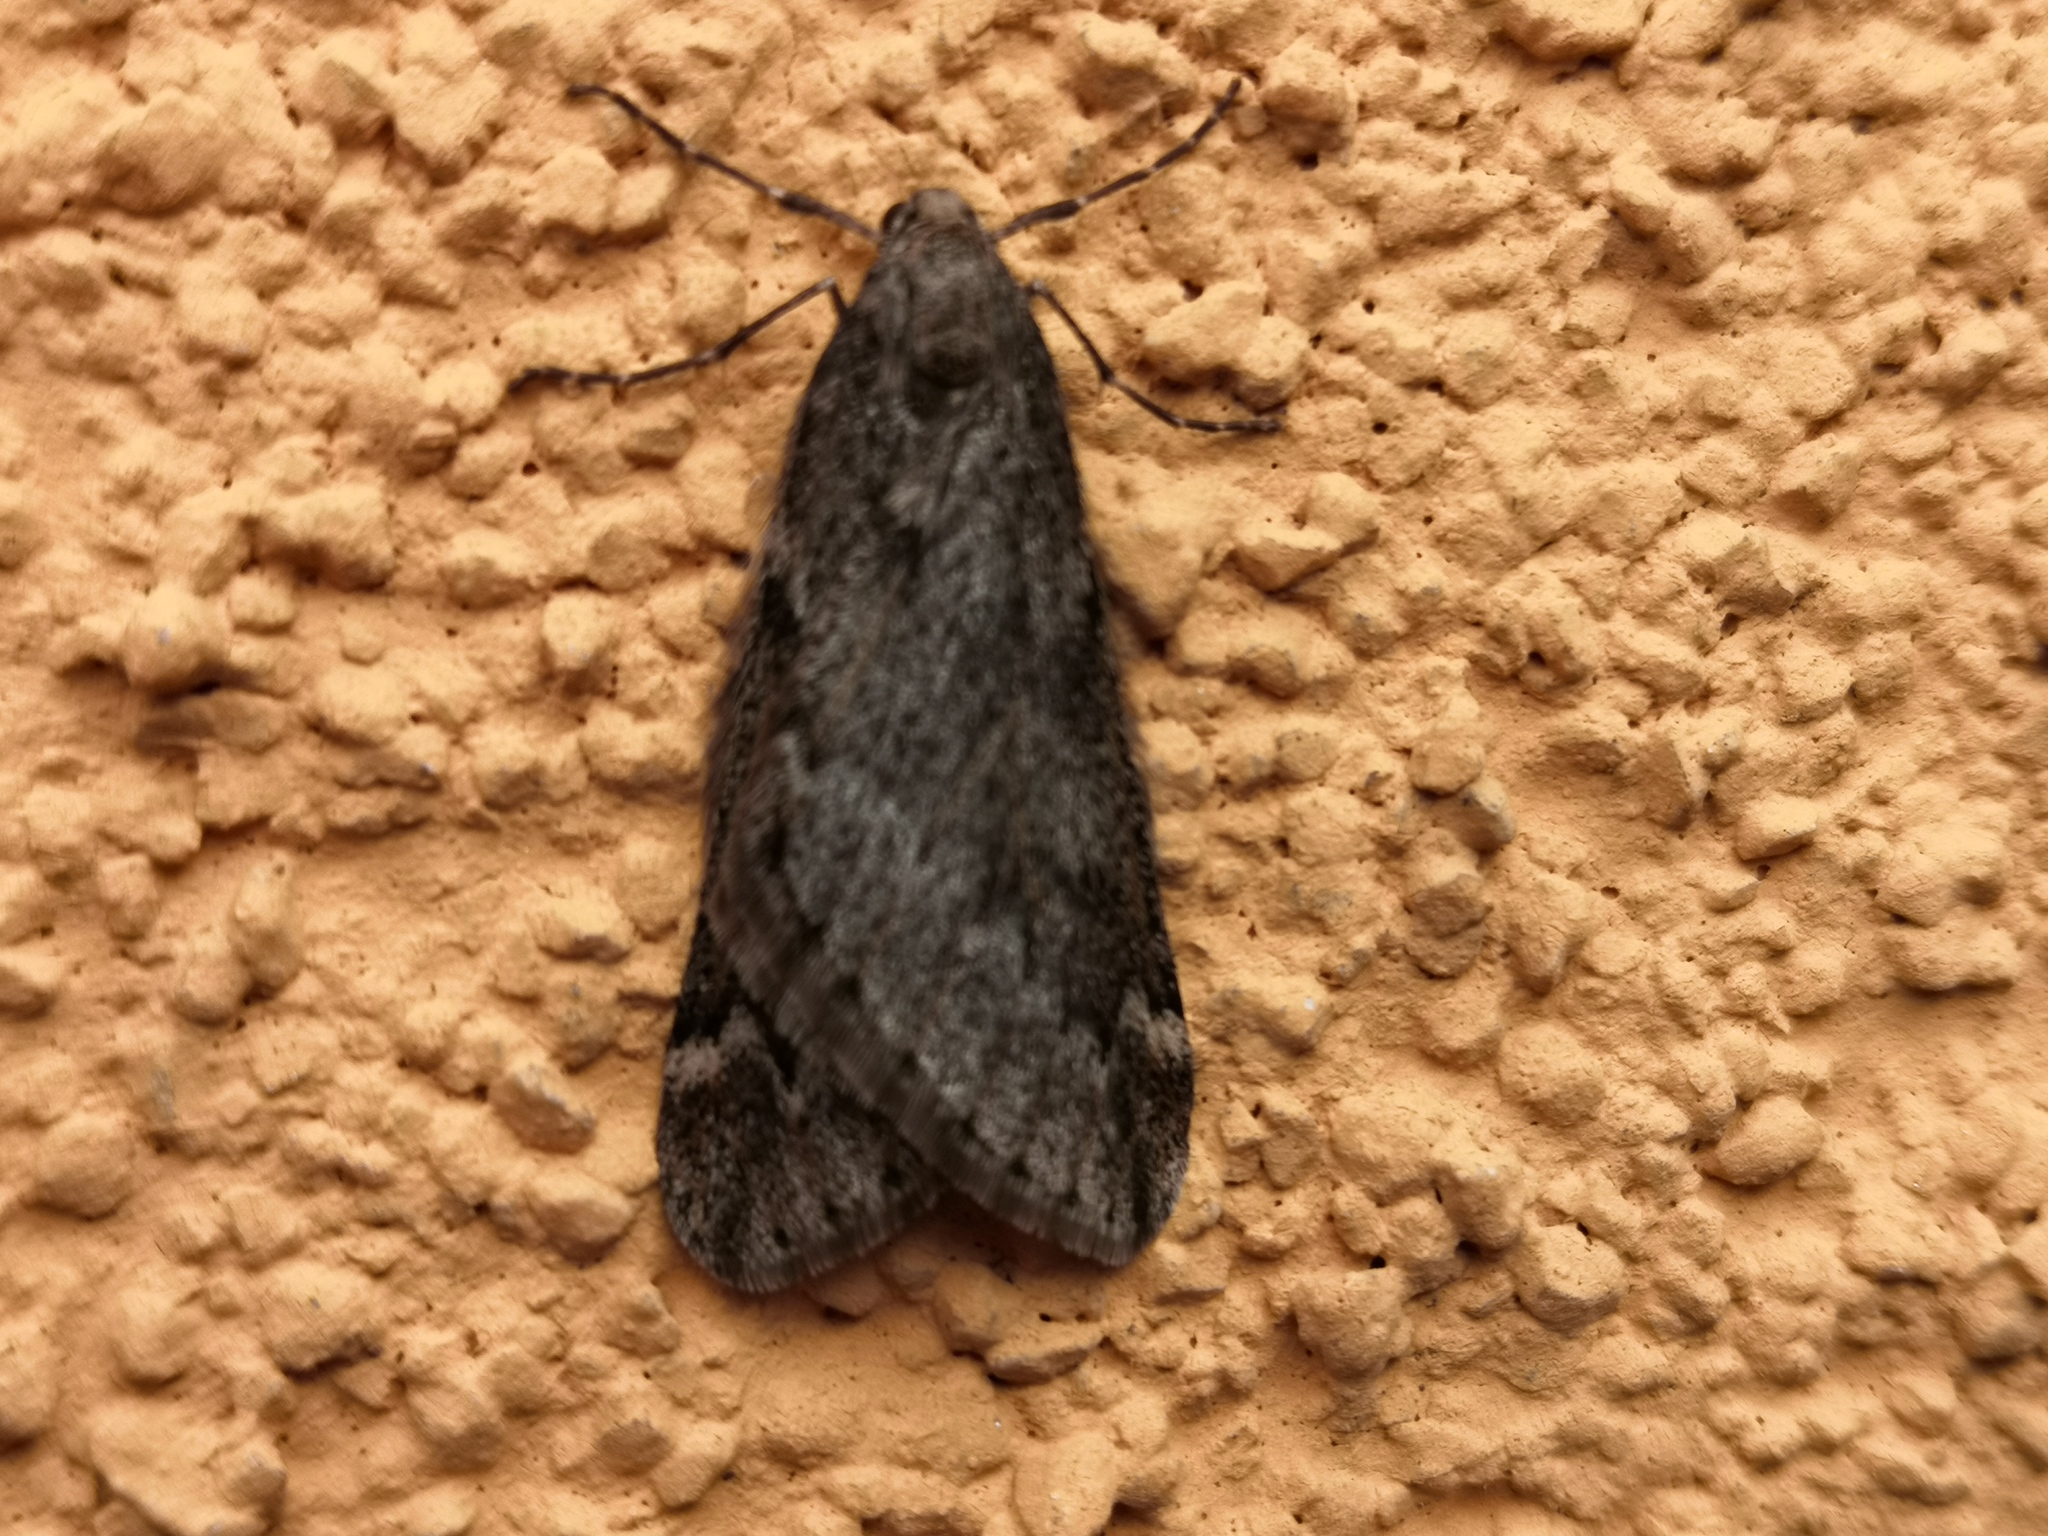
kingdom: Animalia
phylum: Arthropoda
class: Insecta
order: Lepidoptera
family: Geometridae
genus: Alsophila
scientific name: Alsophila aescularia
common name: March moth
